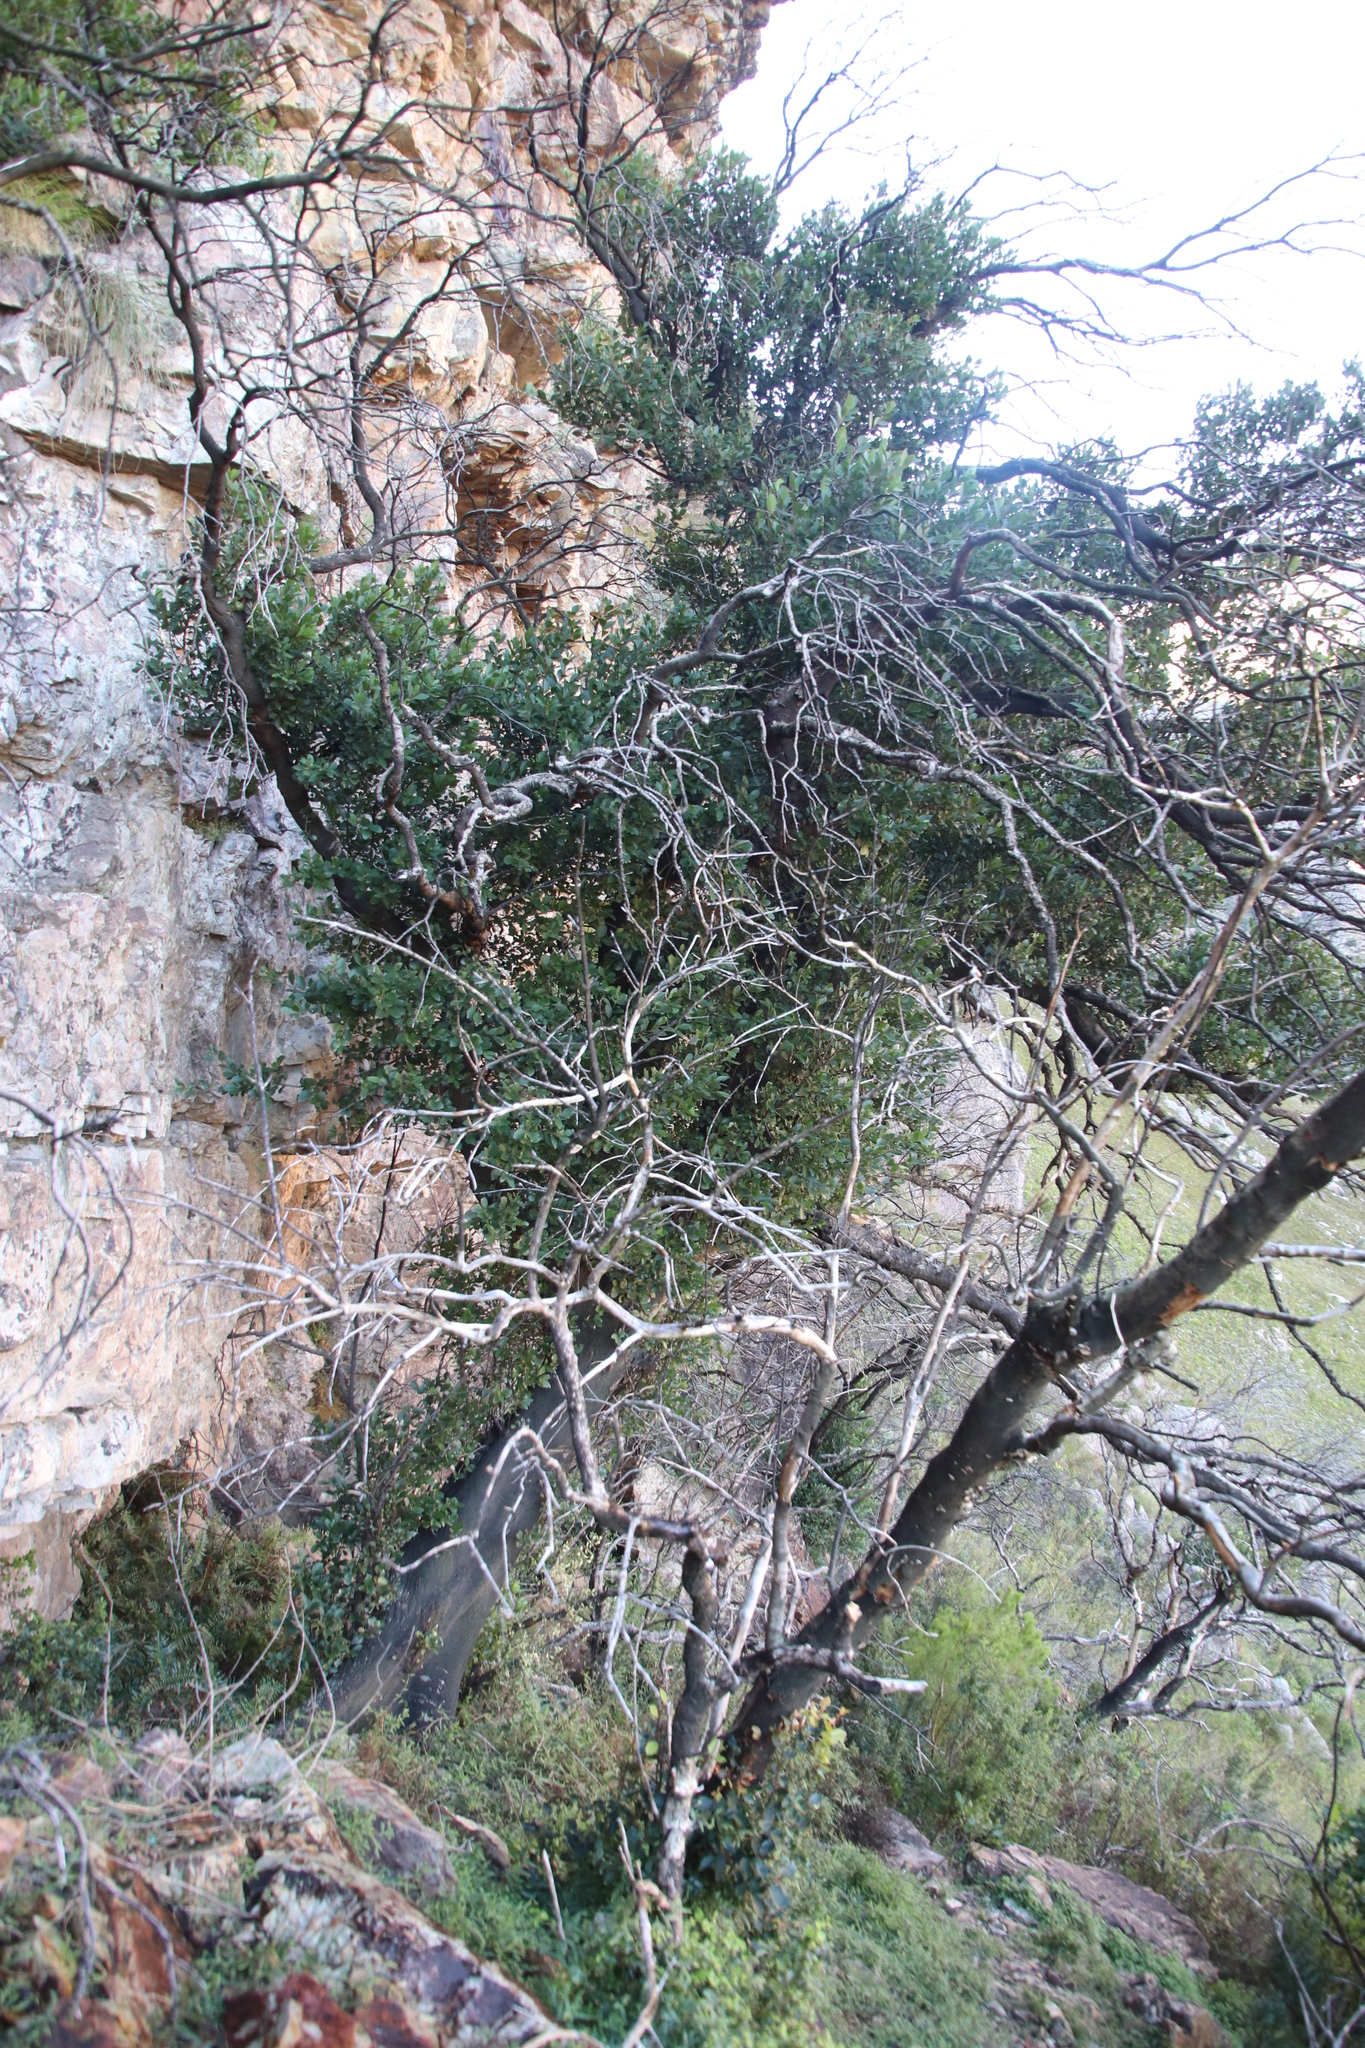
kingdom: Plantae
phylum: Tracheophyta
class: Magnoliopsida
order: Celastrales
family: Celastraceae
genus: Gymnosporia
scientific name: Gymnosporia laurina
